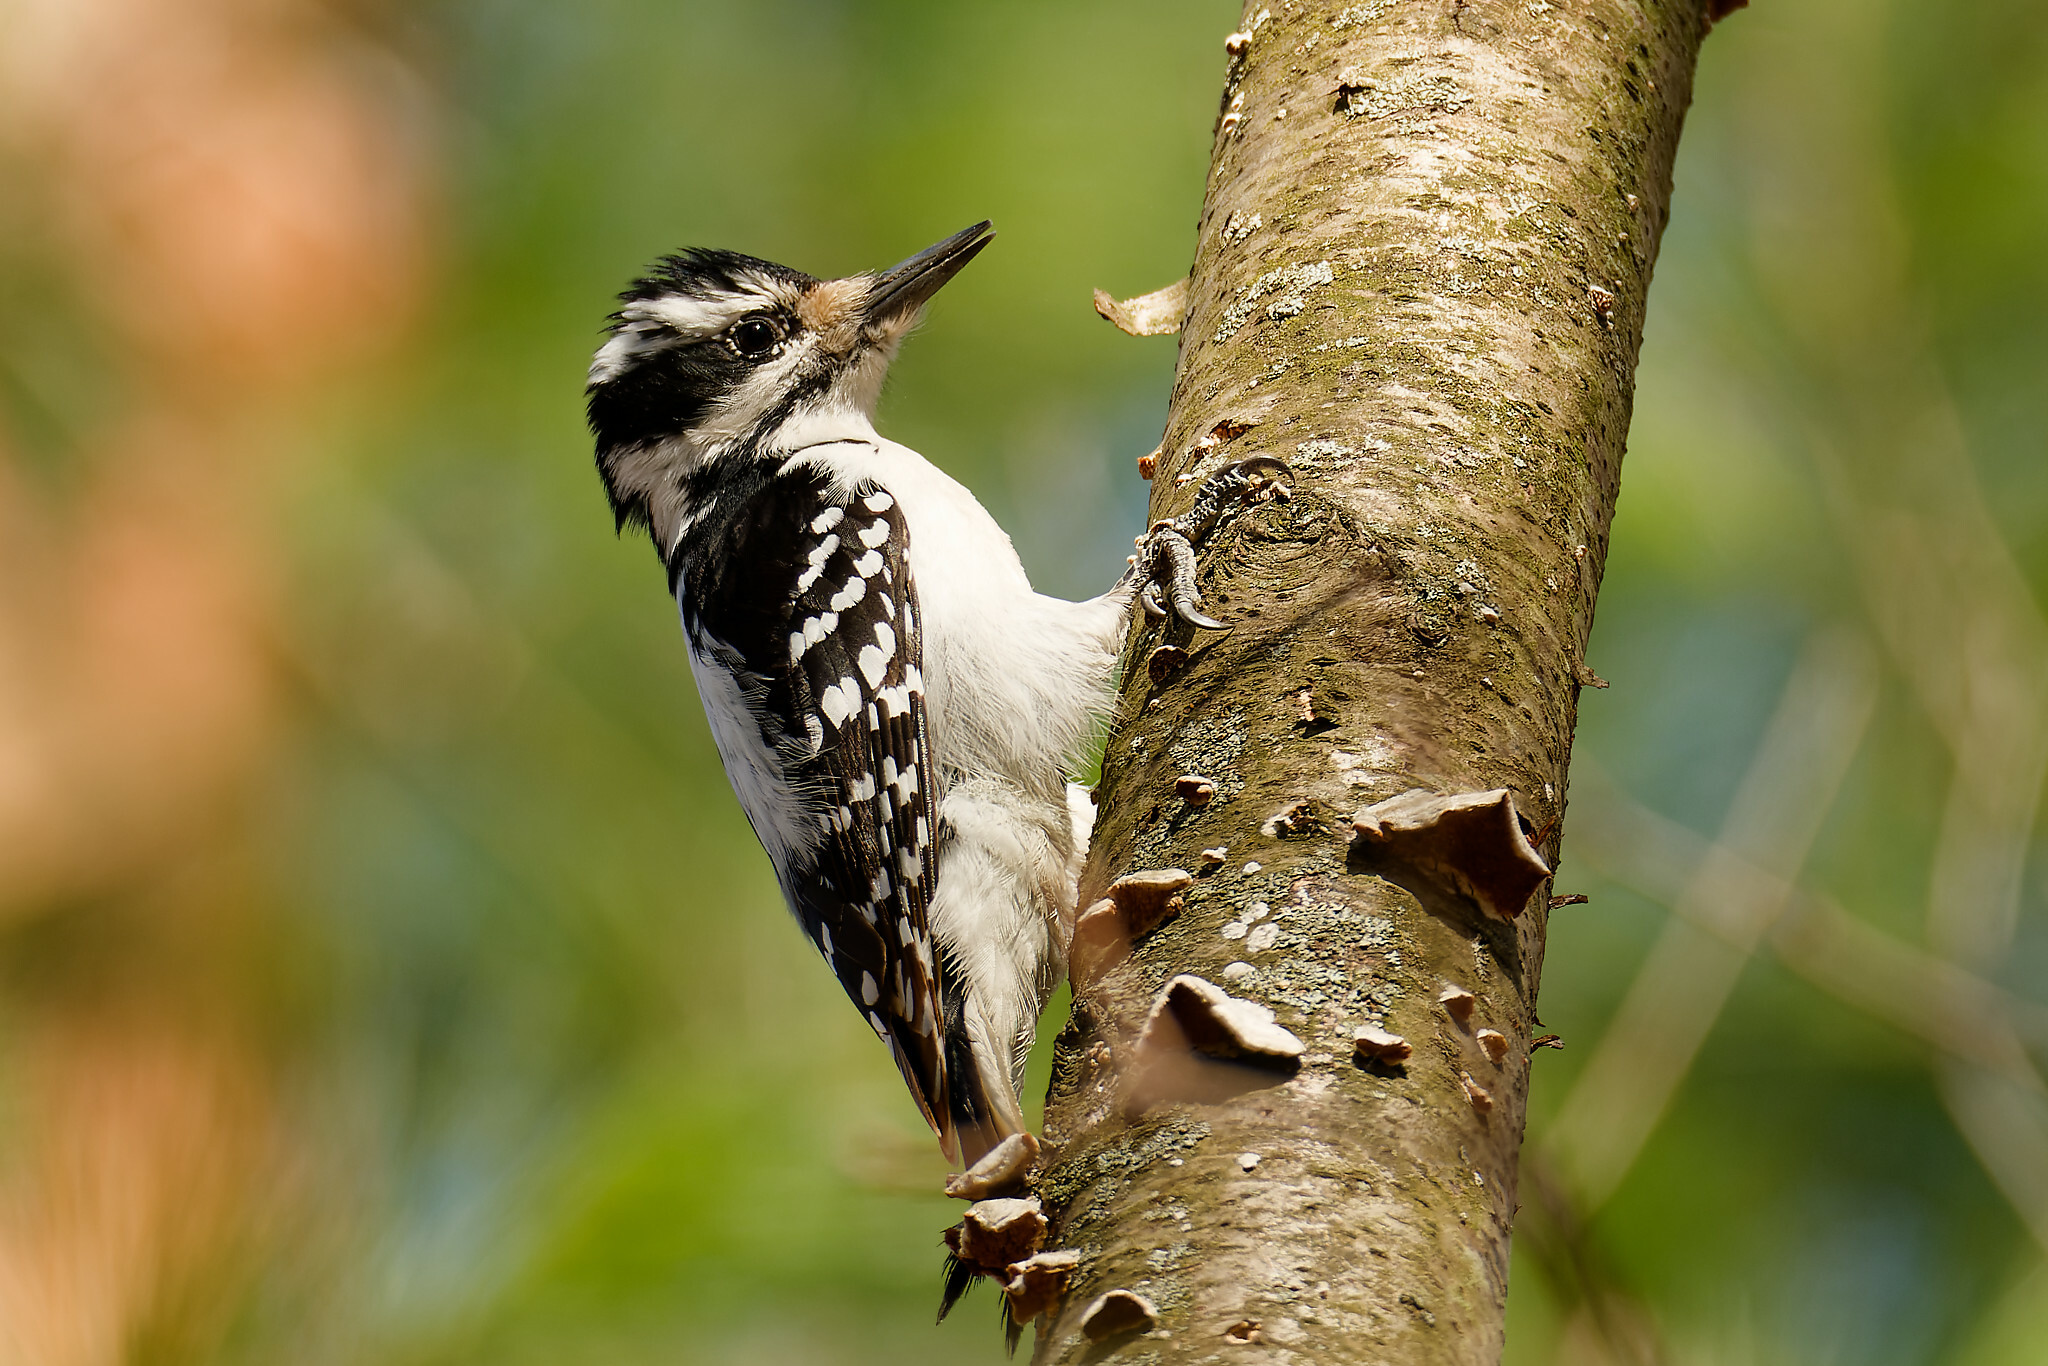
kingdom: Animalia
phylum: Chordata
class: Aves
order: Piciformes
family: Picidae
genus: Leuconotopicus
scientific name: Leuconotopicus villosus
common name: Hairy woodpecker
